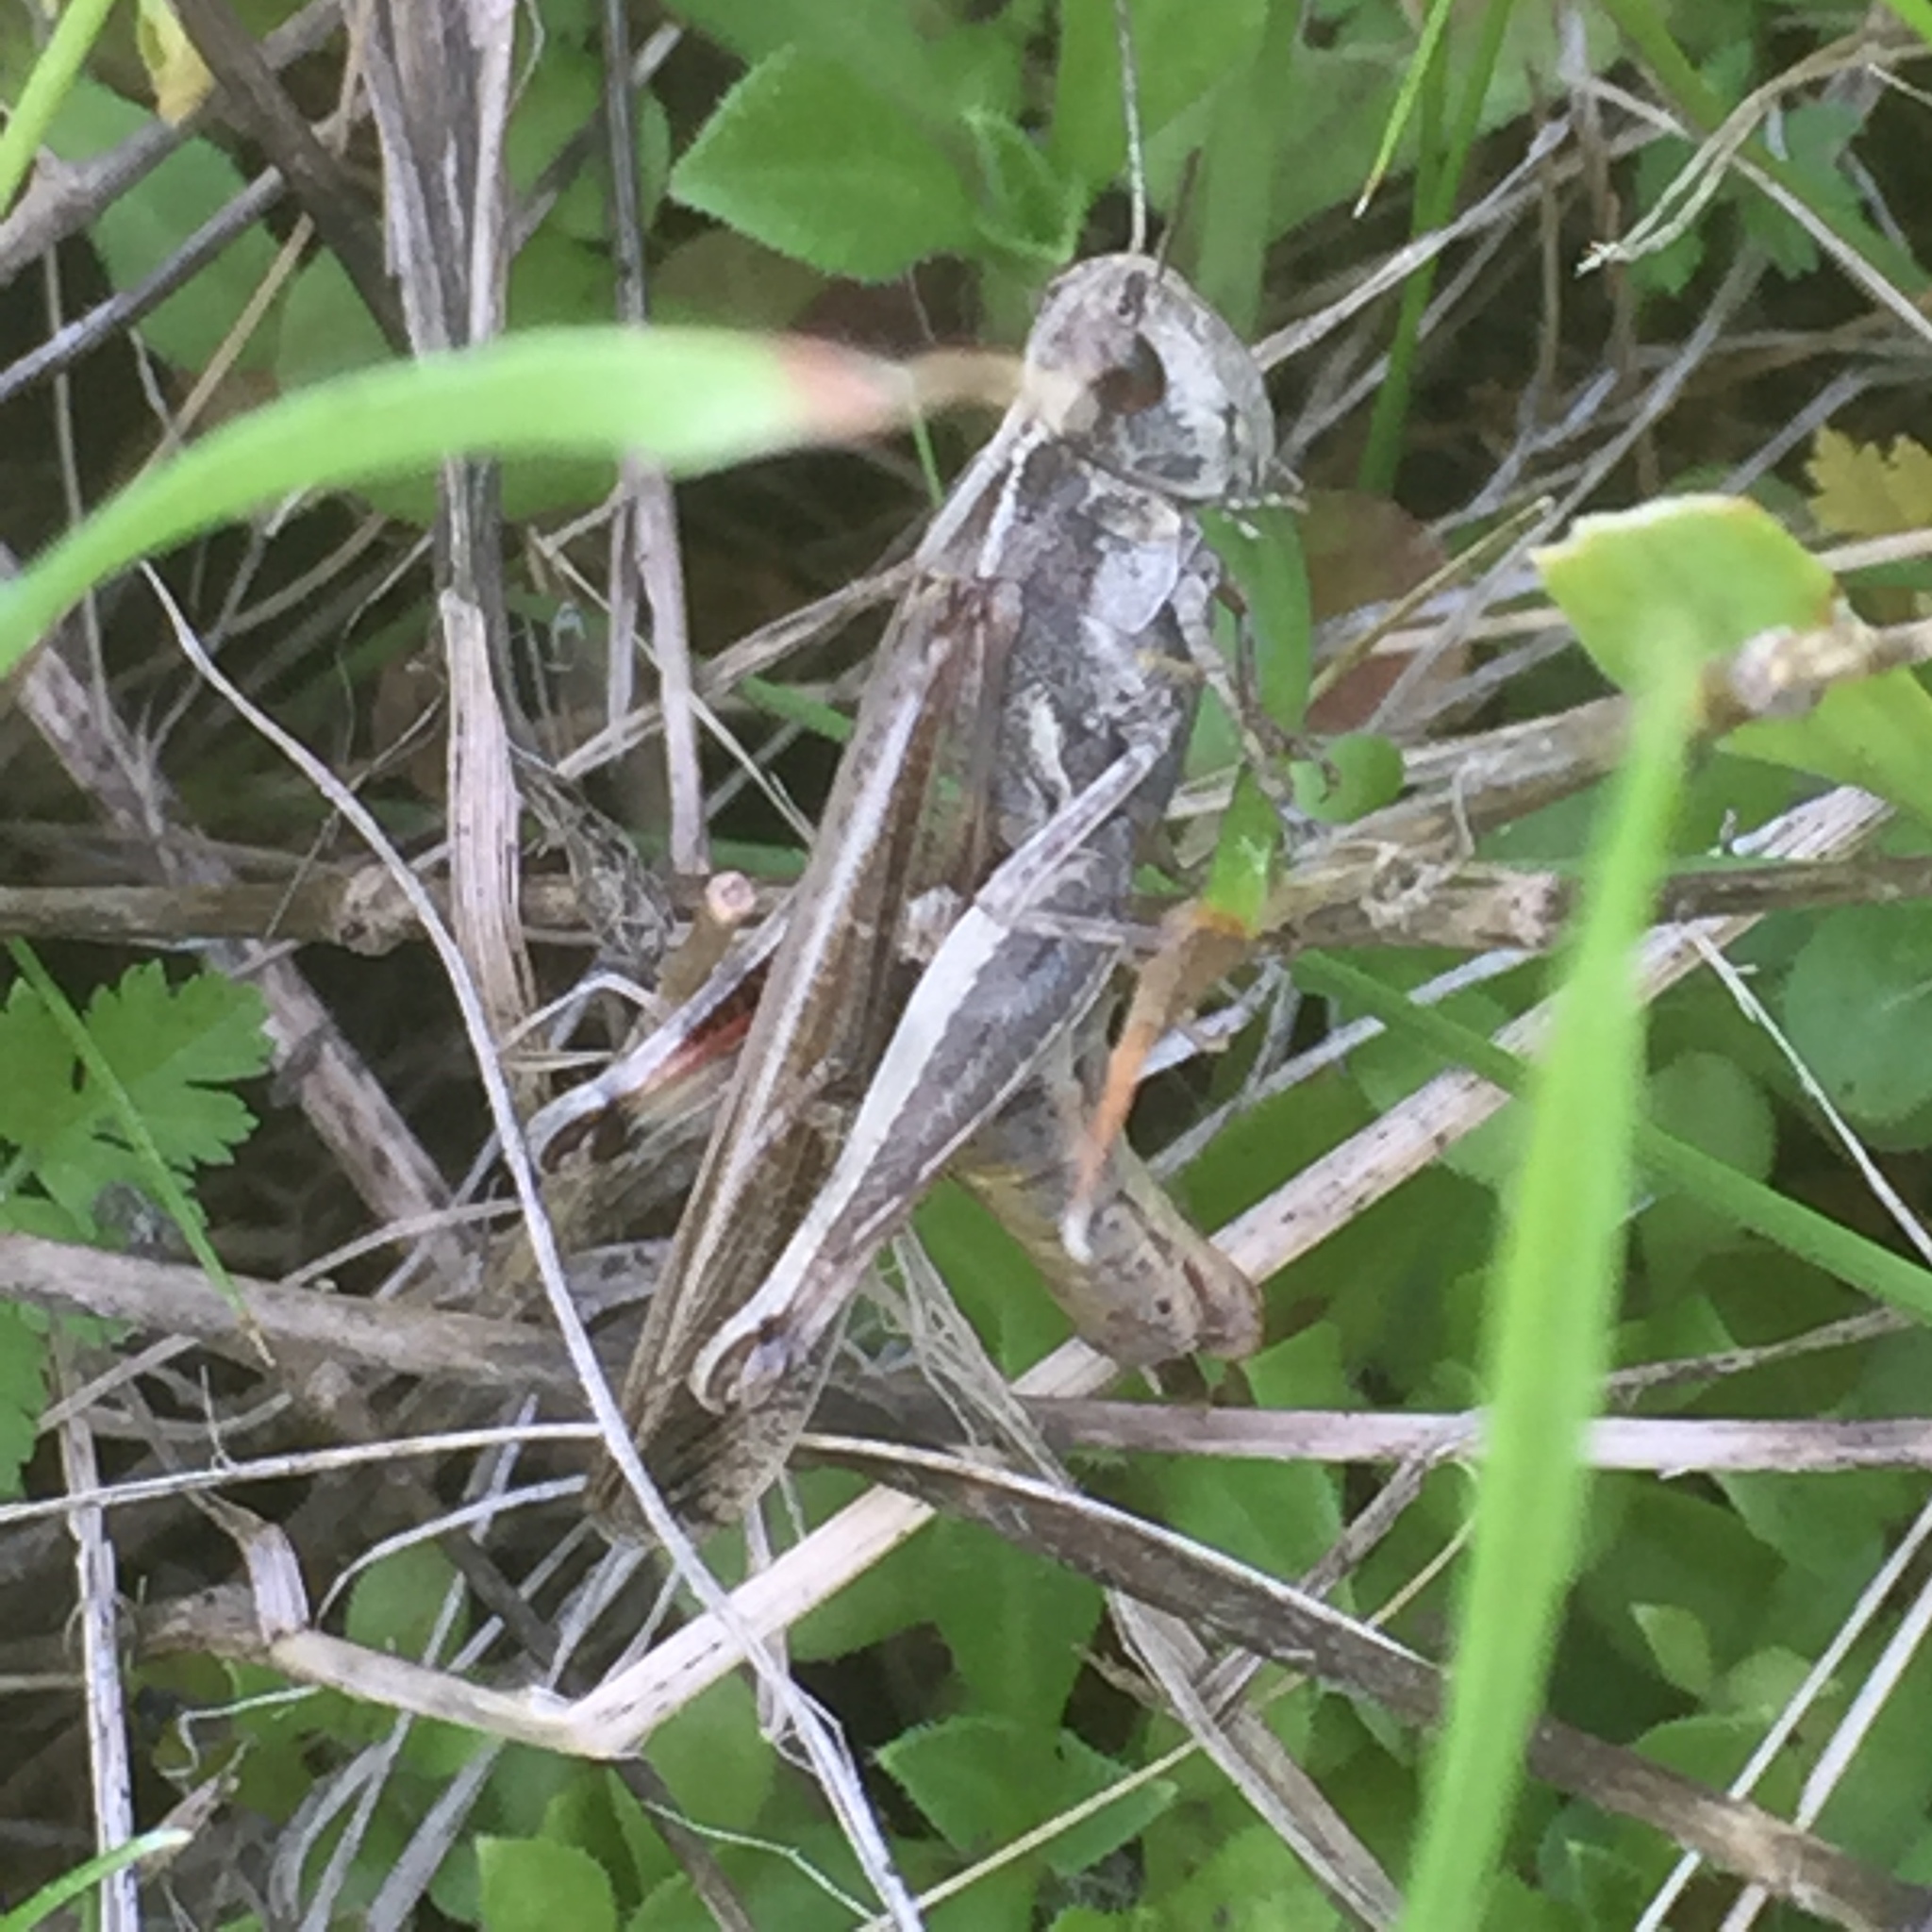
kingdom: Animalia
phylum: Arthropoda
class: Insecta
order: Orthoptera
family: Acrididae
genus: Aiolopus
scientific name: Aiolopus thalassinus
